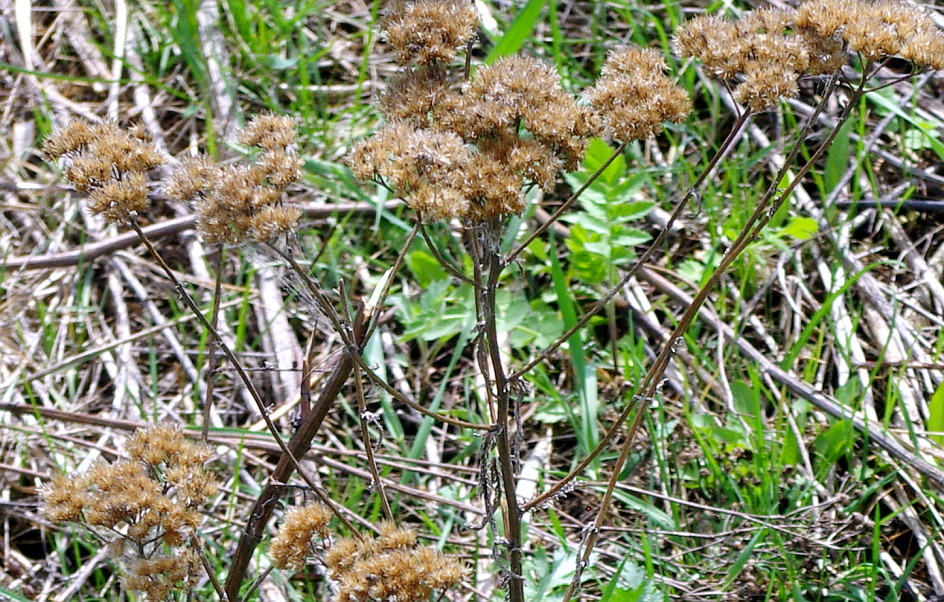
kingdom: Plantae
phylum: Tracheophyta
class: Magnoliopsida
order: Asterales
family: Asteraceae
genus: Achillea
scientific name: Achillea millefolium
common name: Yarrow
